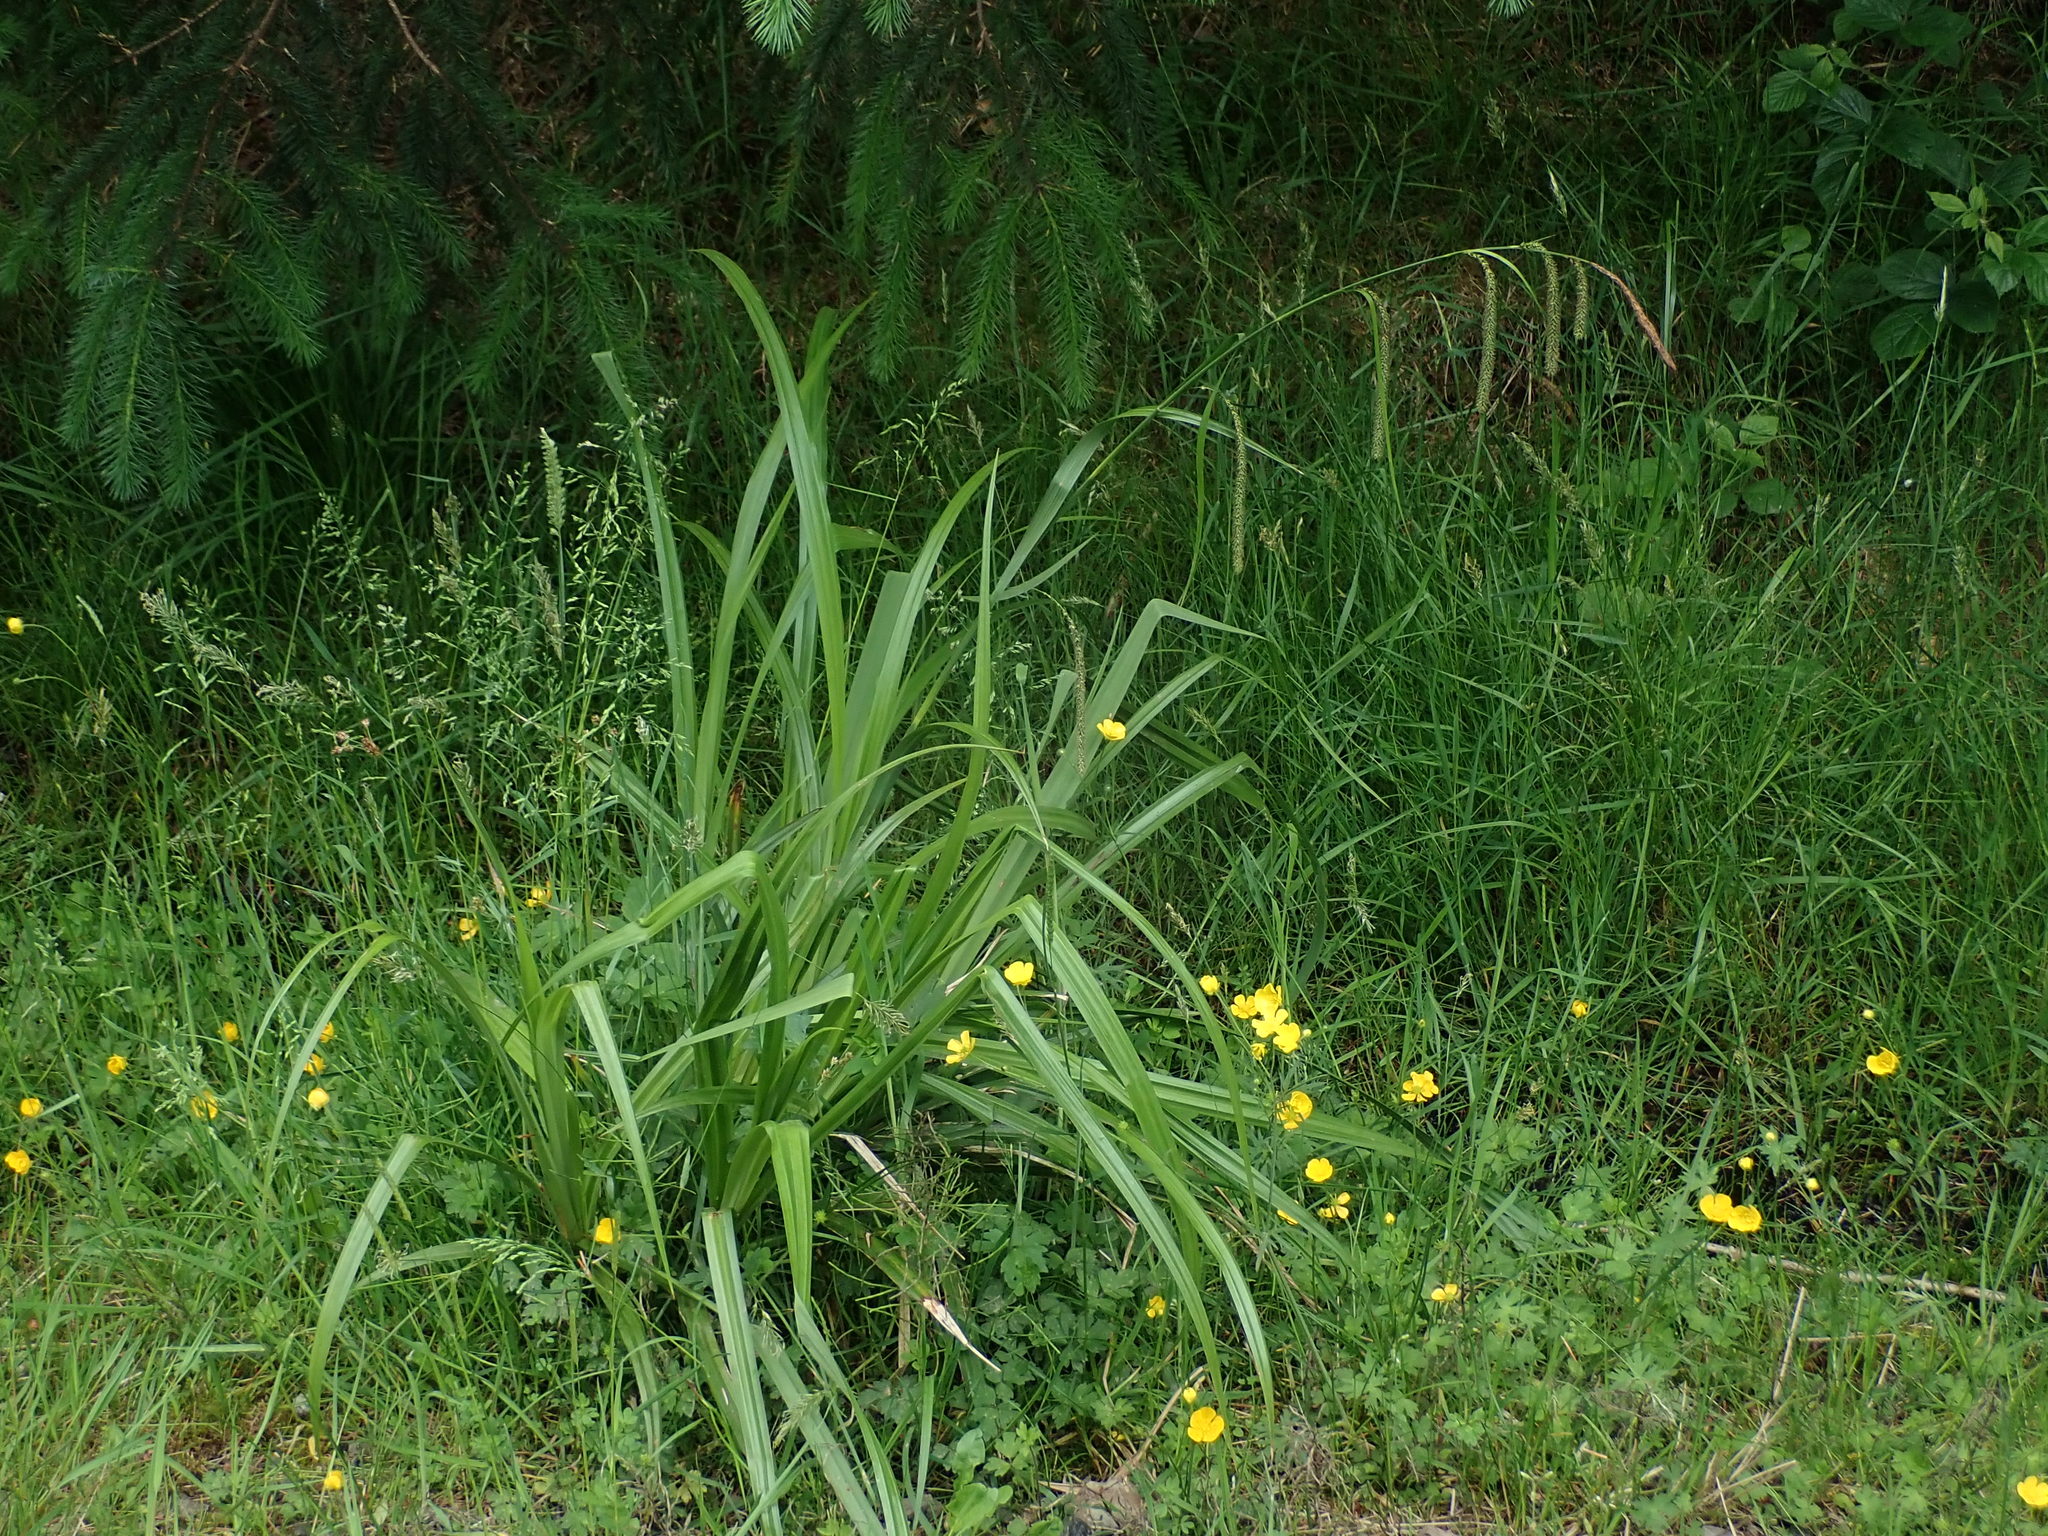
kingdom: Plantae
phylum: Tracheophyta
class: Liliopsida
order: Poales
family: Cyperaceae
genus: Carex
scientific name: Carex pendula
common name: Pendulous sedge
